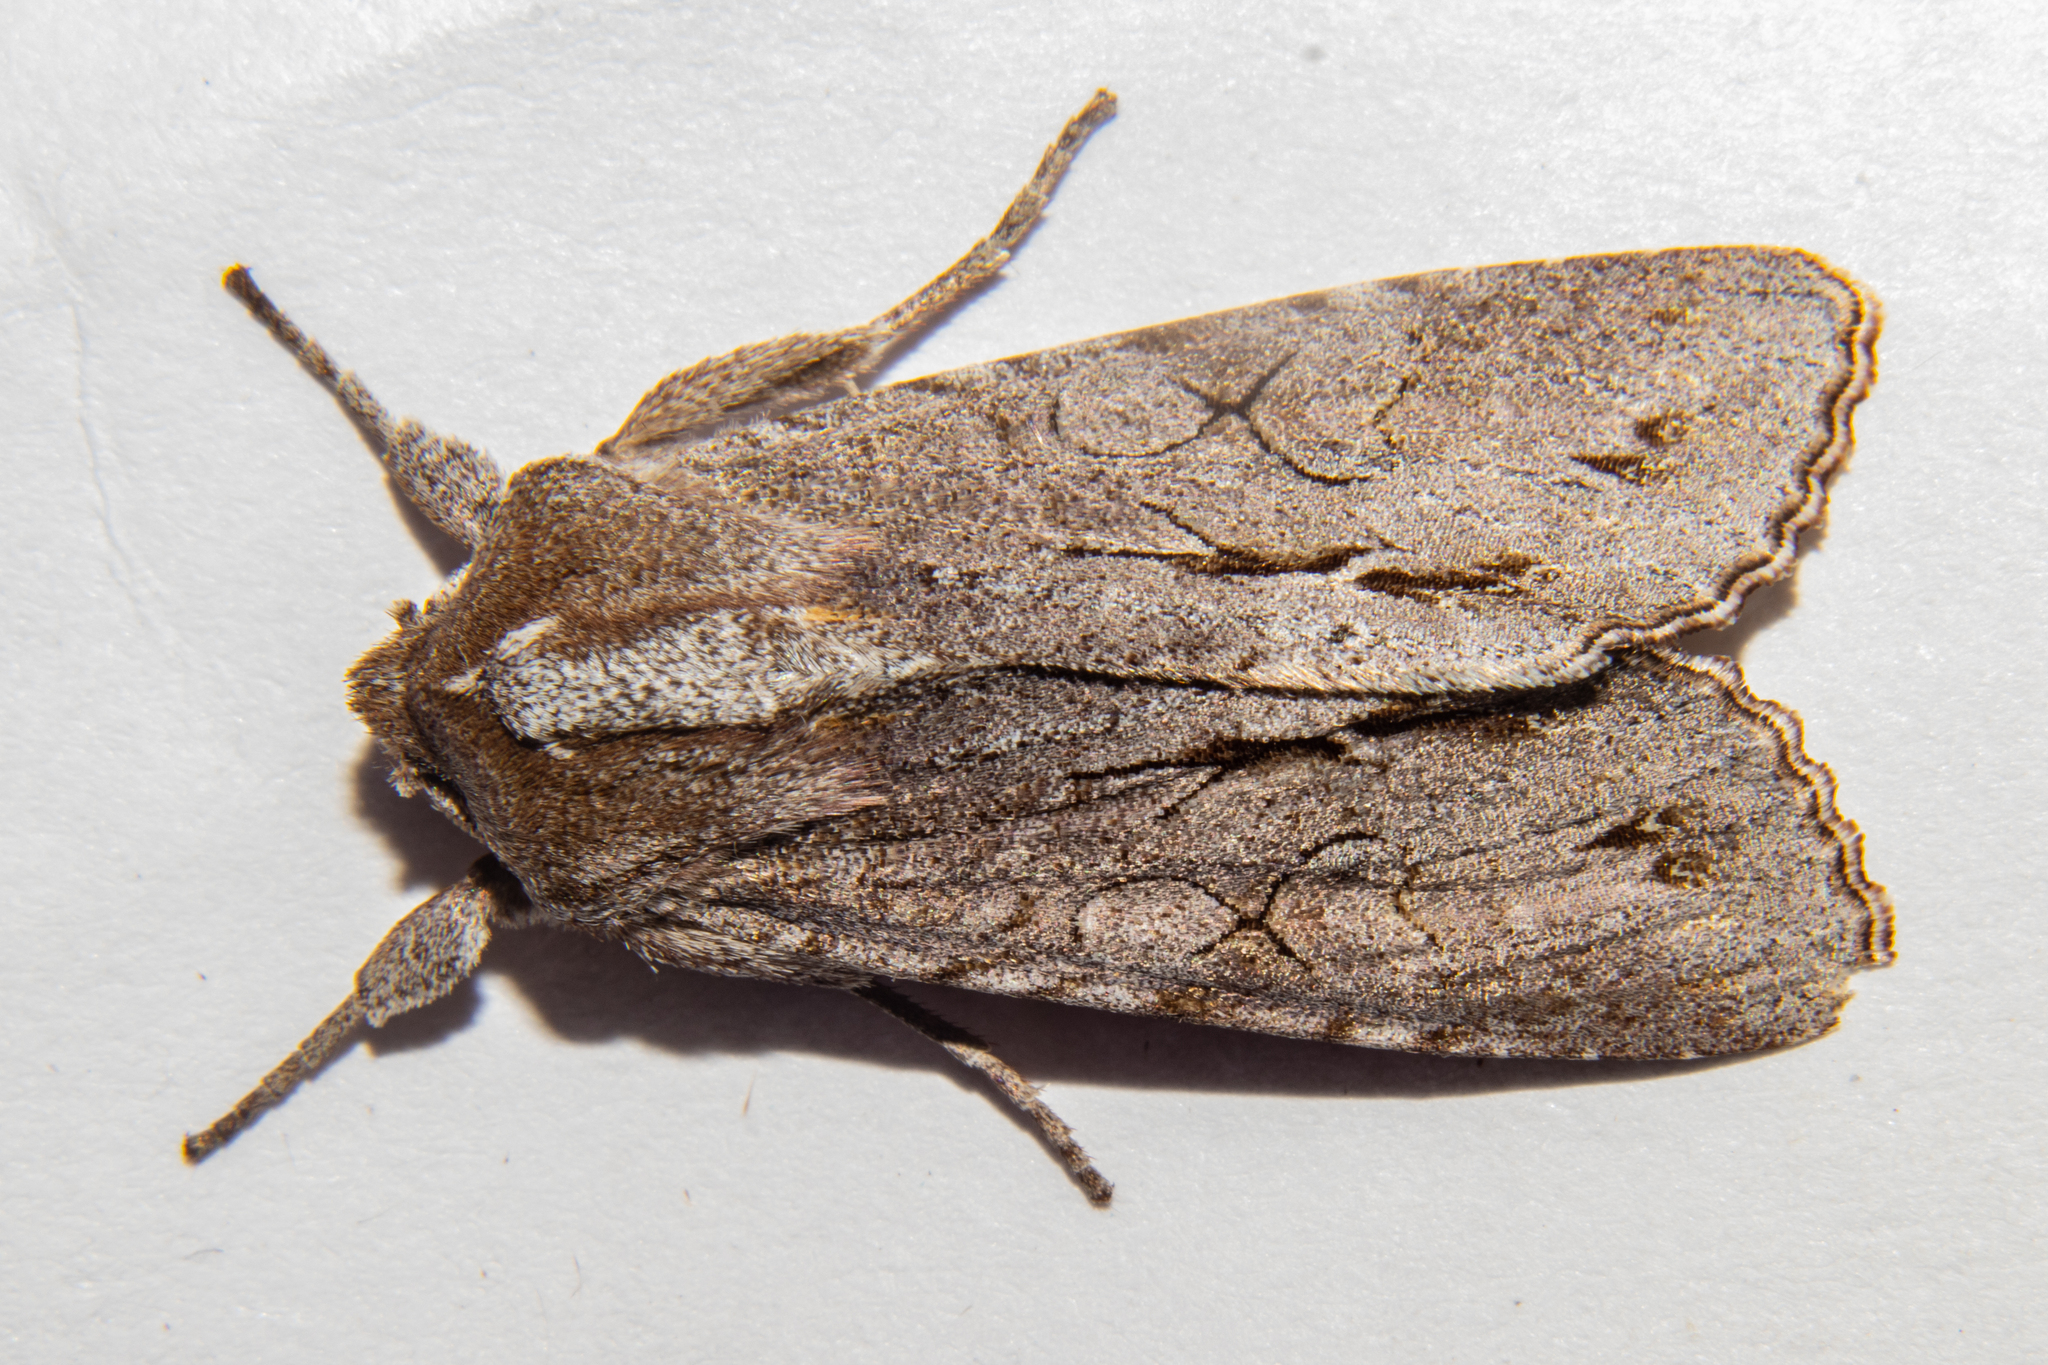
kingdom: Animalia
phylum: Arthropoda
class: Insecta
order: Lepidoptera
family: Noctuidae
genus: Ichneutica
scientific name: Ichneutica
